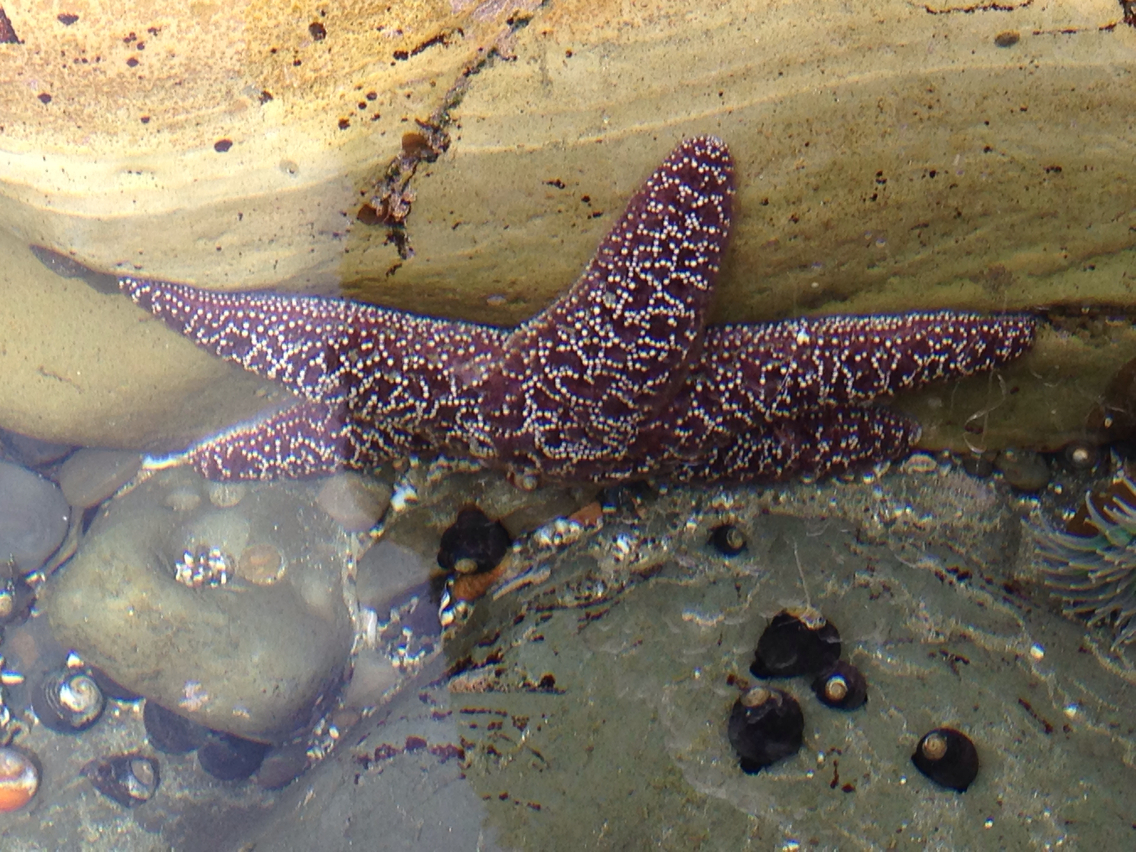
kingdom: Animalia
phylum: Echinodermata
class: Asteroidea
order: Forcipulatida
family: Asteriidae
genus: Pisaster
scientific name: Pisaster ochraceus
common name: Ochre stars
